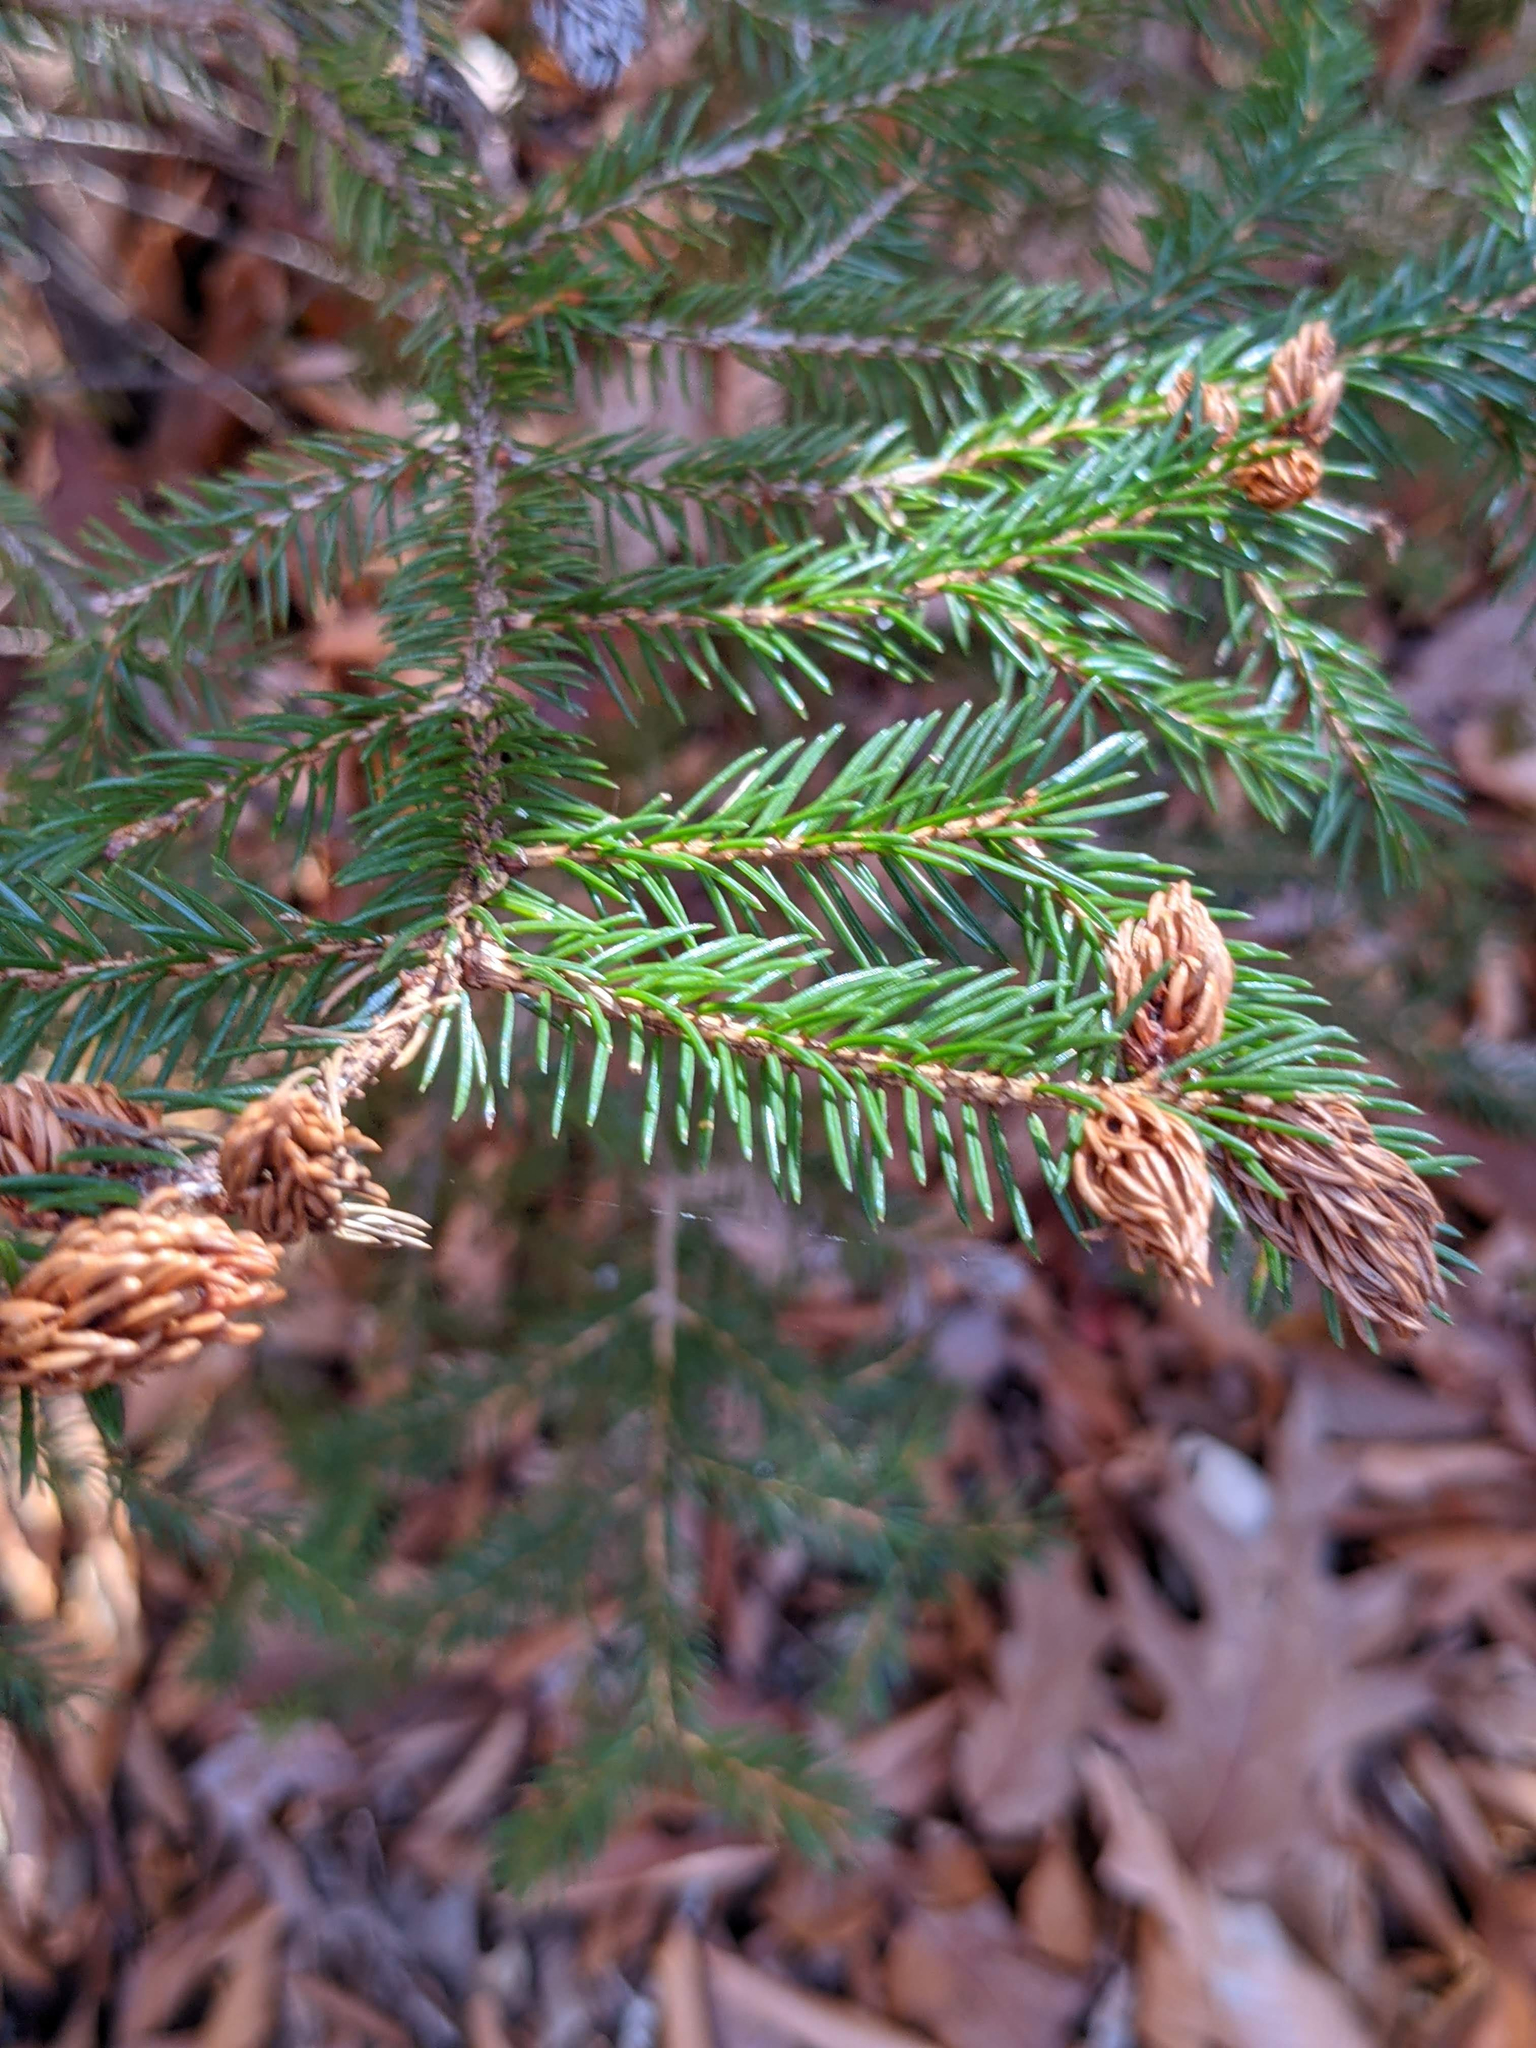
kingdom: Plantae
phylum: Tracheophyta
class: Pinopsida
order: Pinales
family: Pinaceae
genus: Picea
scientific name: Picea rubens
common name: Red spruce
